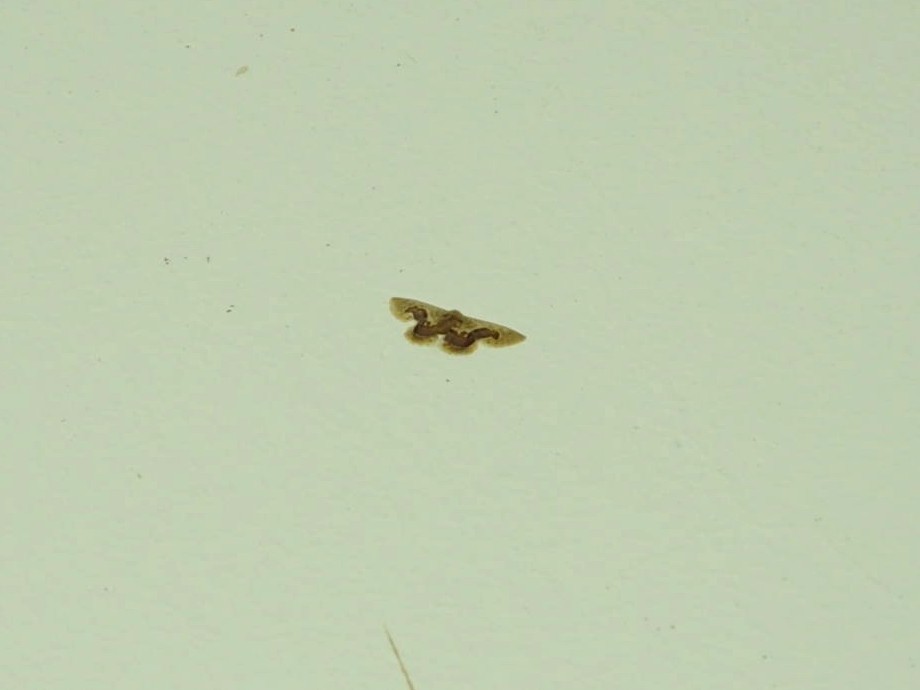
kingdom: Animalia
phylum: Arthropoda
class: Insecta
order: Lepidoptera
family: Geometridae
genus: Idaea
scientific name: Idaea gemmaria
